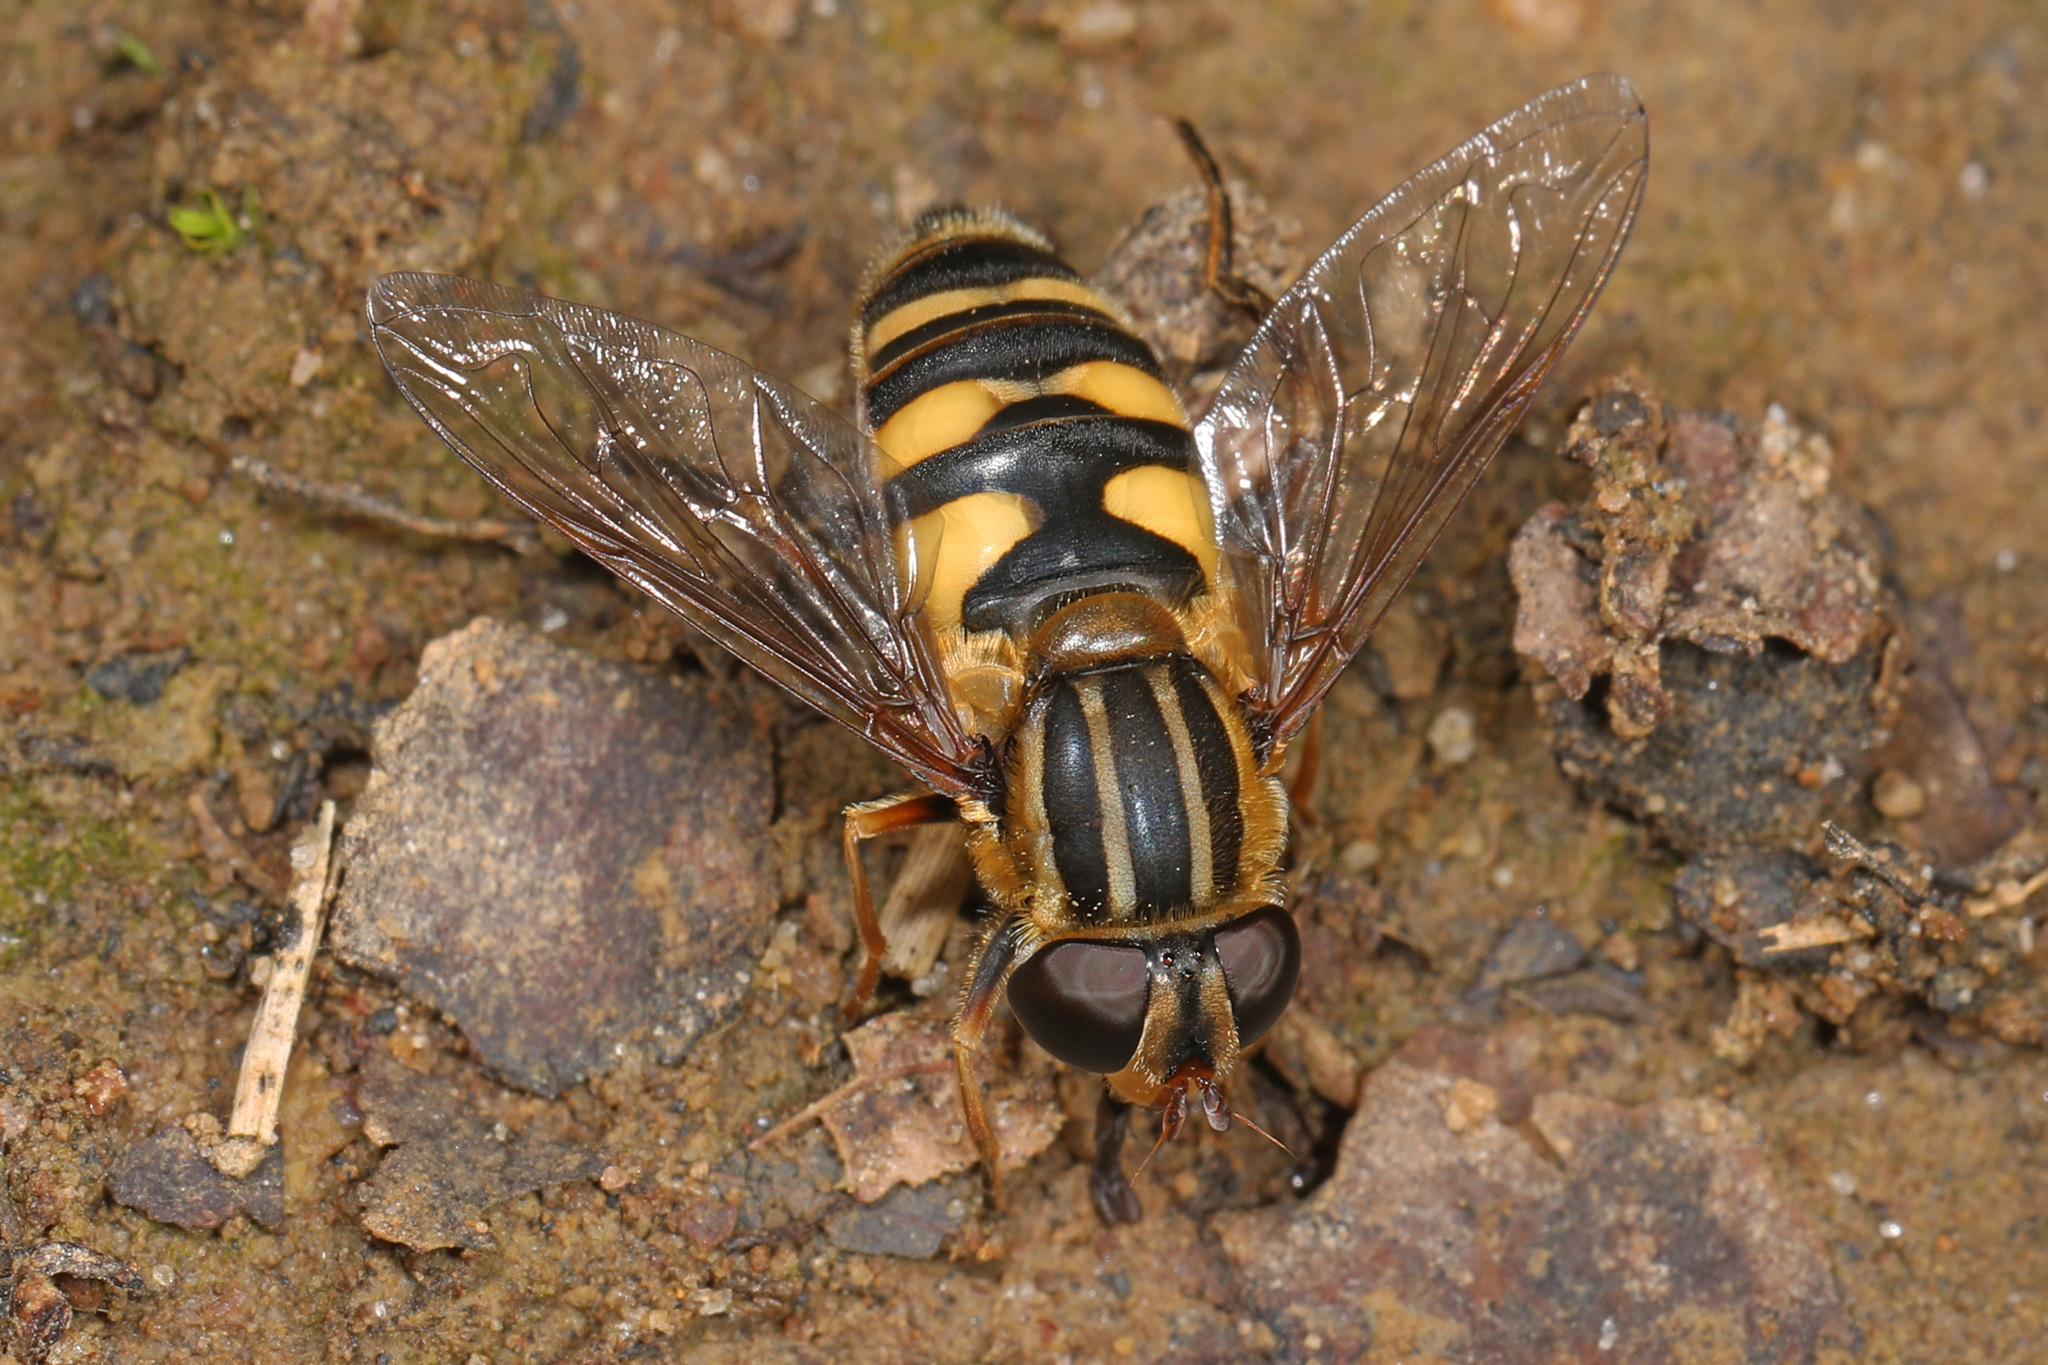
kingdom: Animalia
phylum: Arthropoda
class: Insecta
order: Diptera
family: Syrphidae
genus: Helophilus
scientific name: Helophilus fasciatus
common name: Narrow-headed marsh fly
